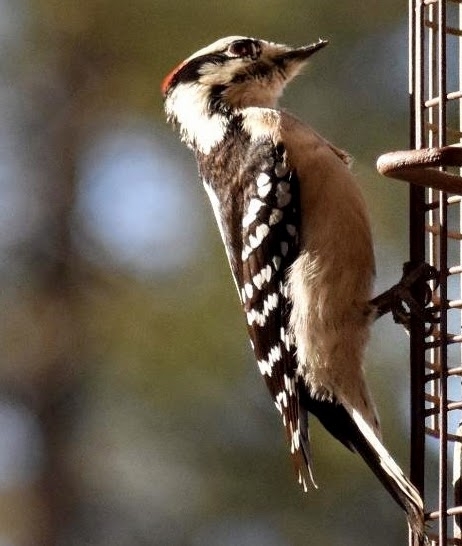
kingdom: Animalia
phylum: Chordata
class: Aves
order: Piciformes
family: Picidae
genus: Dryobates
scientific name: Dryobates pubescens
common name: Downy woodpecker
